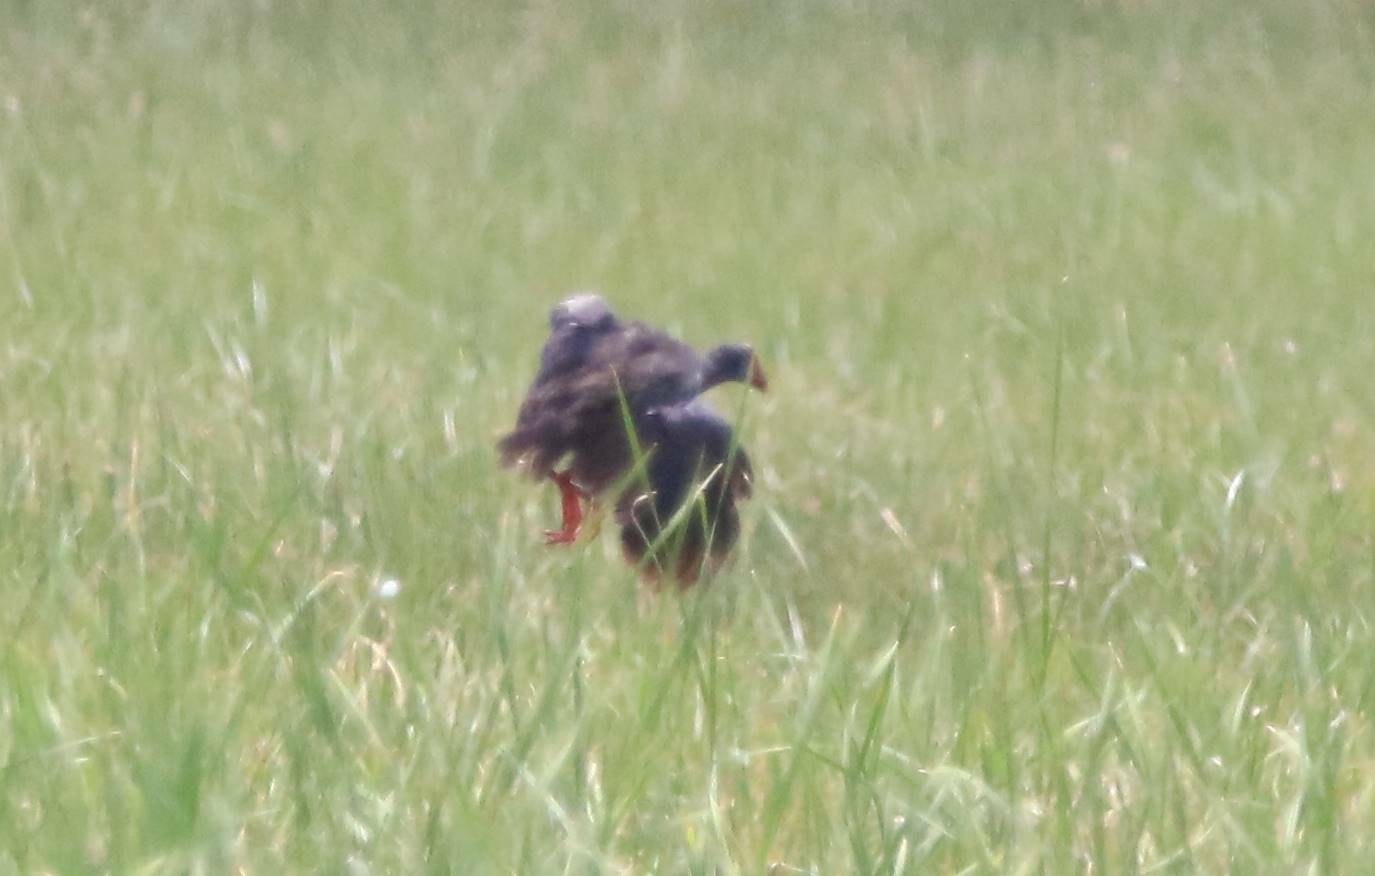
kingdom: Animalia
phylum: Chordata
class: Aves
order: Gruiformes
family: Rallidae
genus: Porphyrio
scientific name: Porphyrio porphyrio
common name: Purple swamphen
